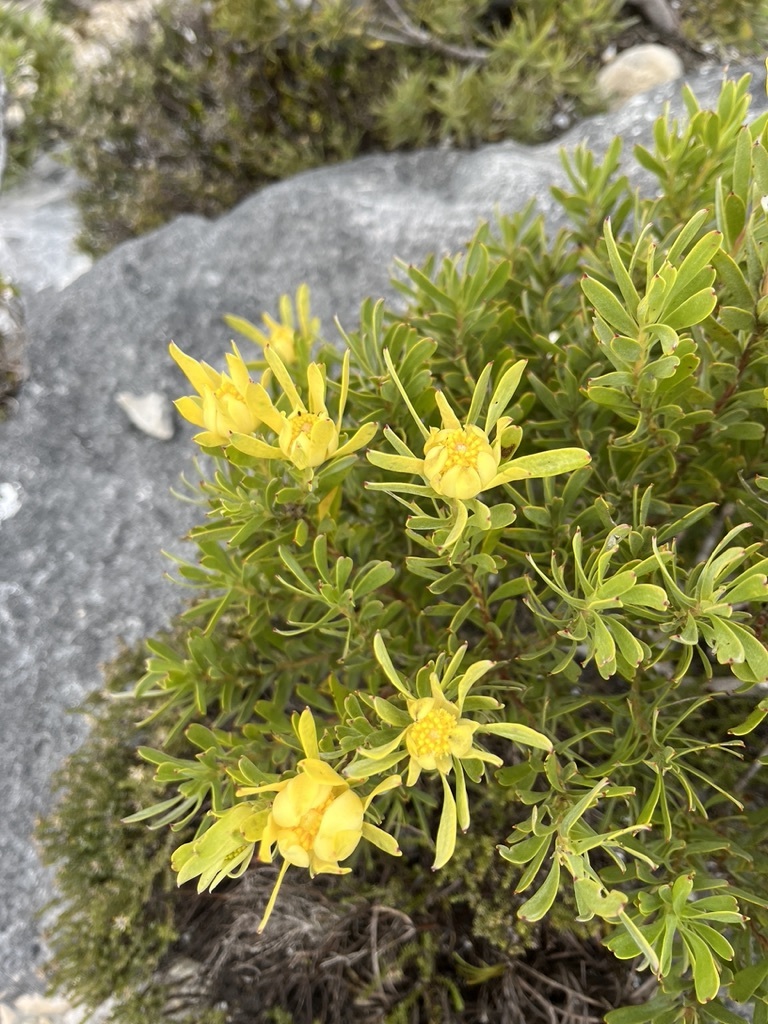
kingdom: Plantae
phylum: Tracheophyta
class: Magnoliopsida
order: Proteales
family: Proteaceae
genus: Leucadendron
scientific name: Leucadendron meridianum
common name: Limestone conebush
